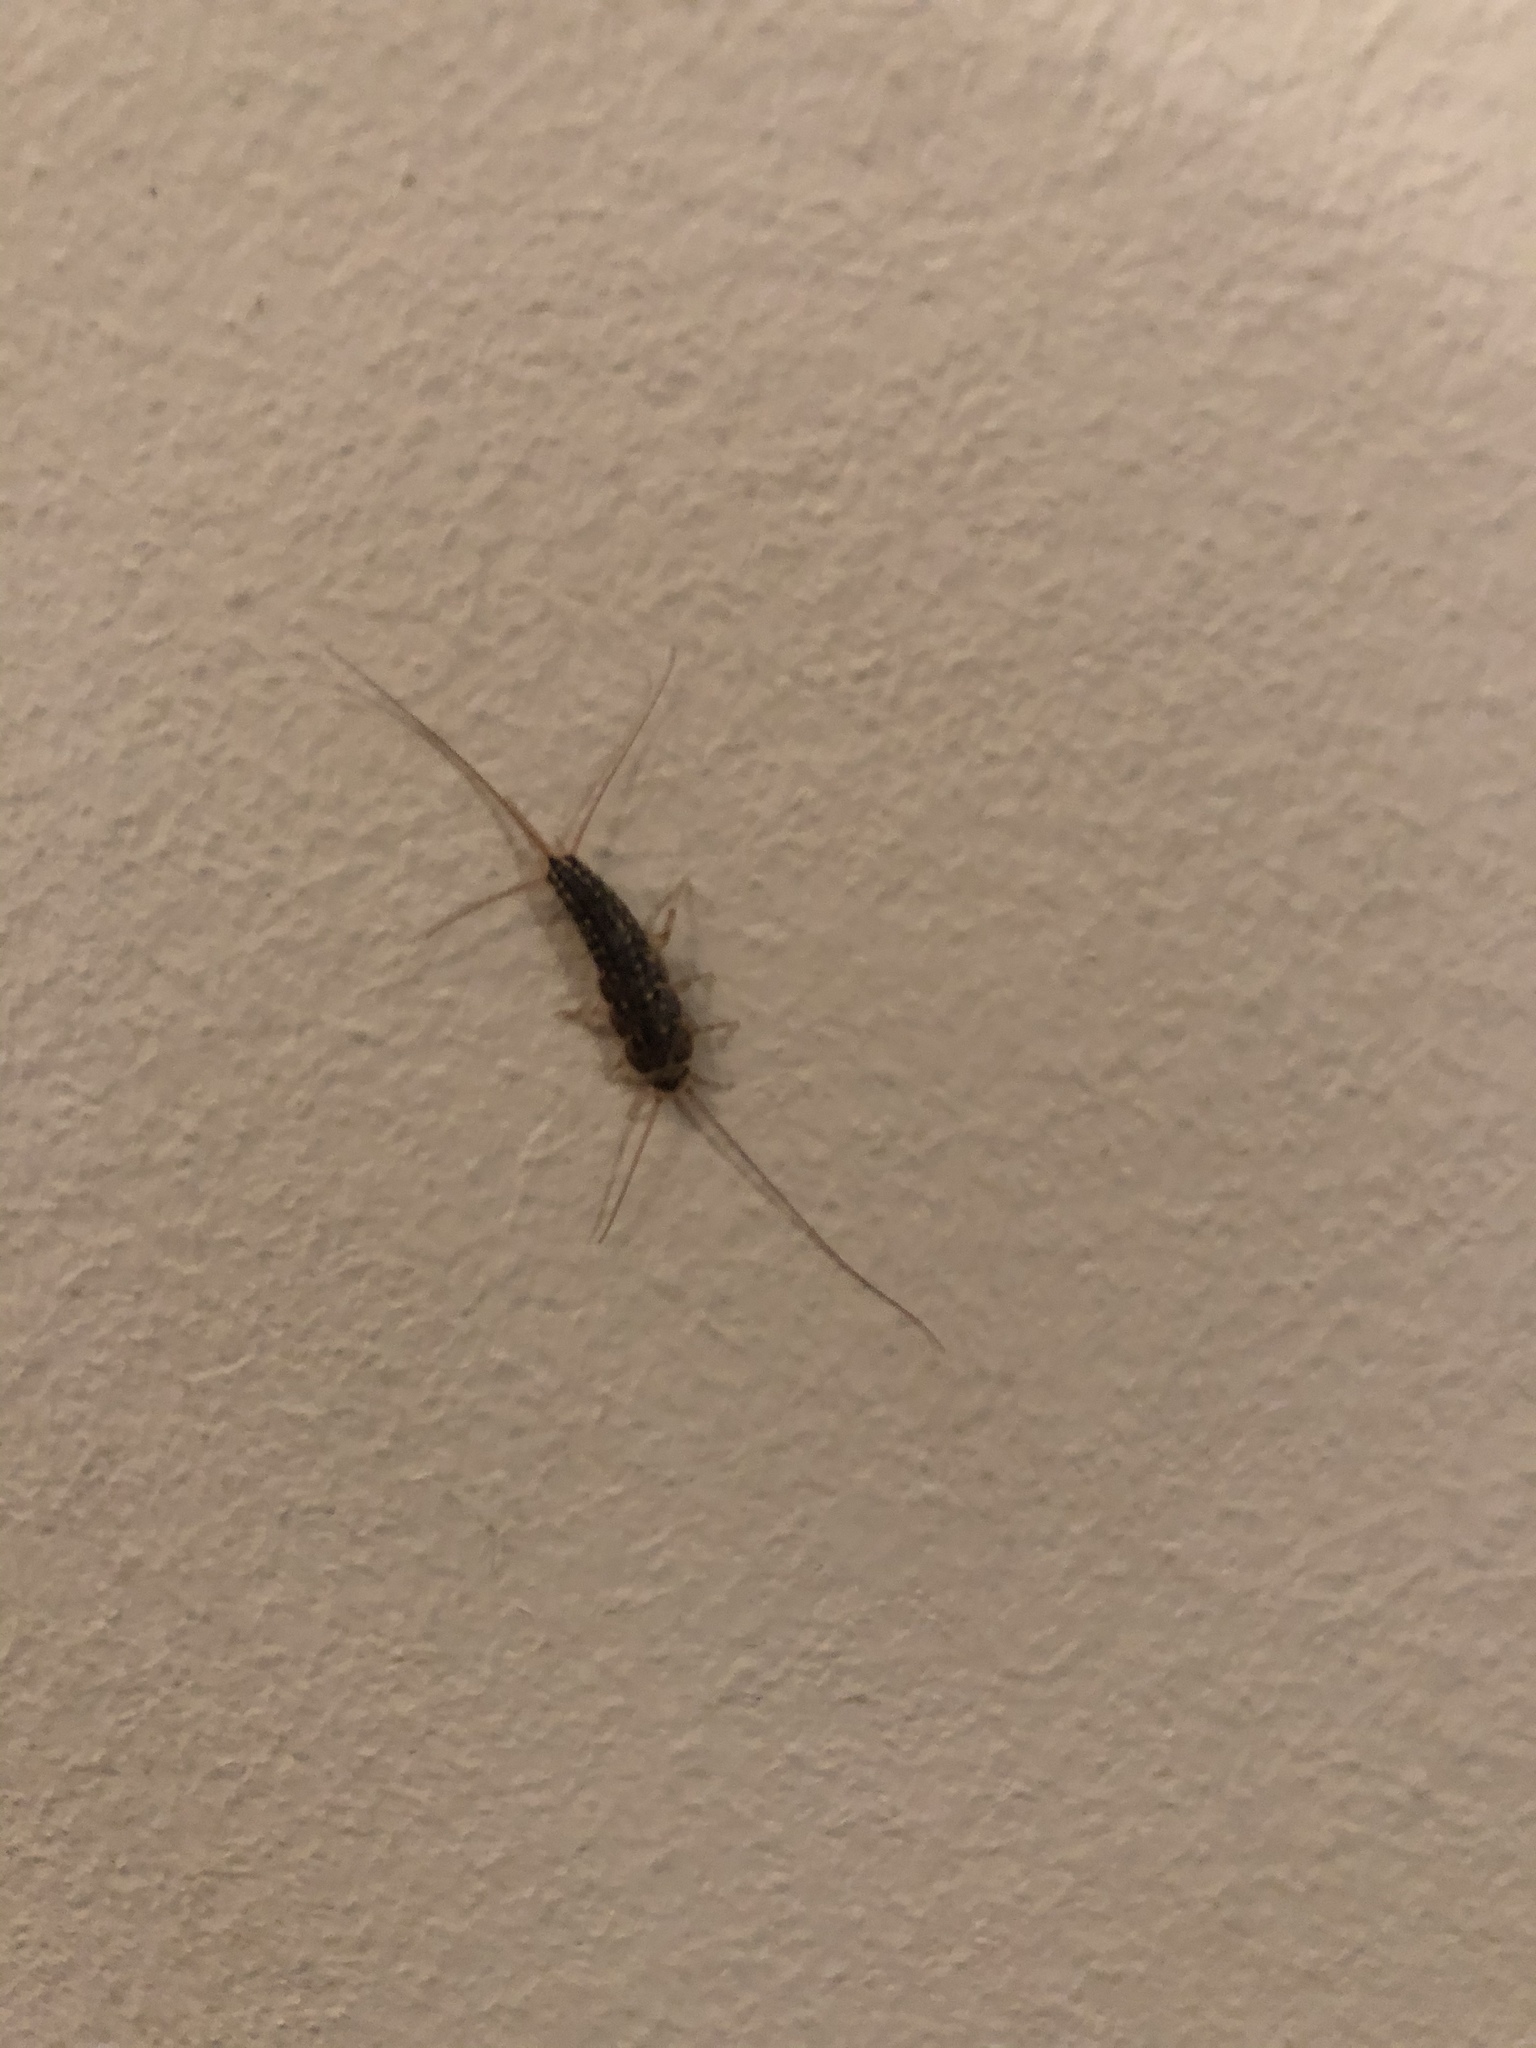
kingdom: Animalia
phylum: Arthropoda
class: Insecta
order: Zygentoma
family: Lepismatidae
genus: Ctenolepisma
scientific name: Ctenolepisma lineata
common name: Four-lined silverfish
